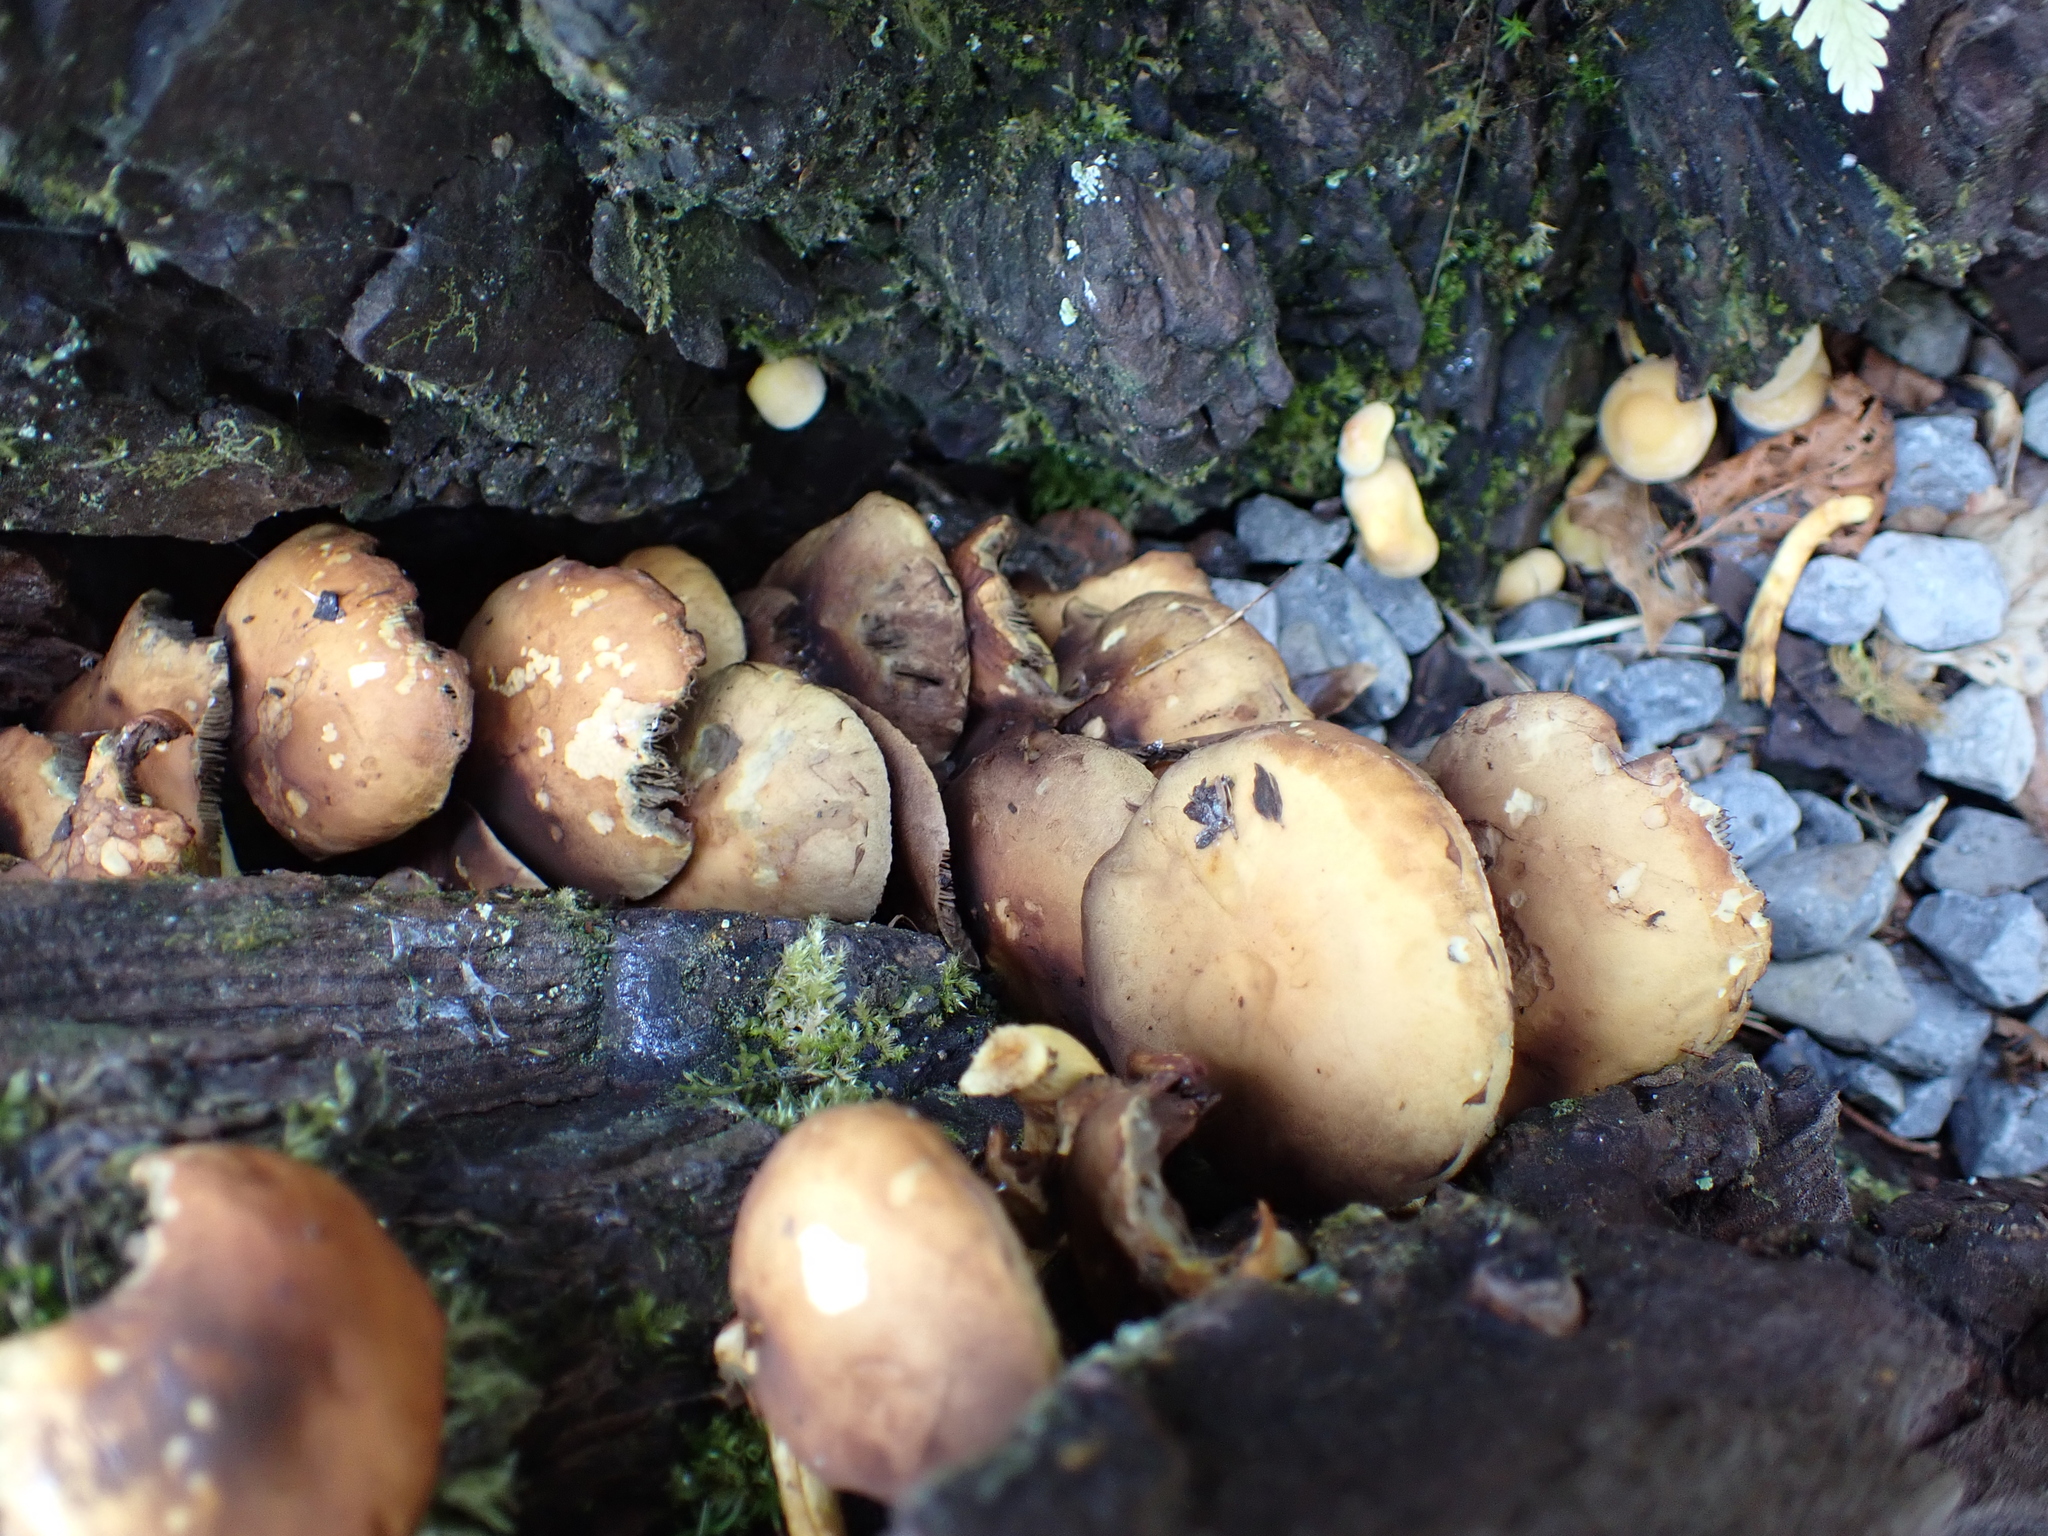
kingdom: Fungi
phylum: Basidiomycota
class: Agaricomycetes
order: Agaricales
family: Strophariaceae
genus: Hypholoma
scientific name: Hypholoma fasciculare
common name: Sulphur tuft
